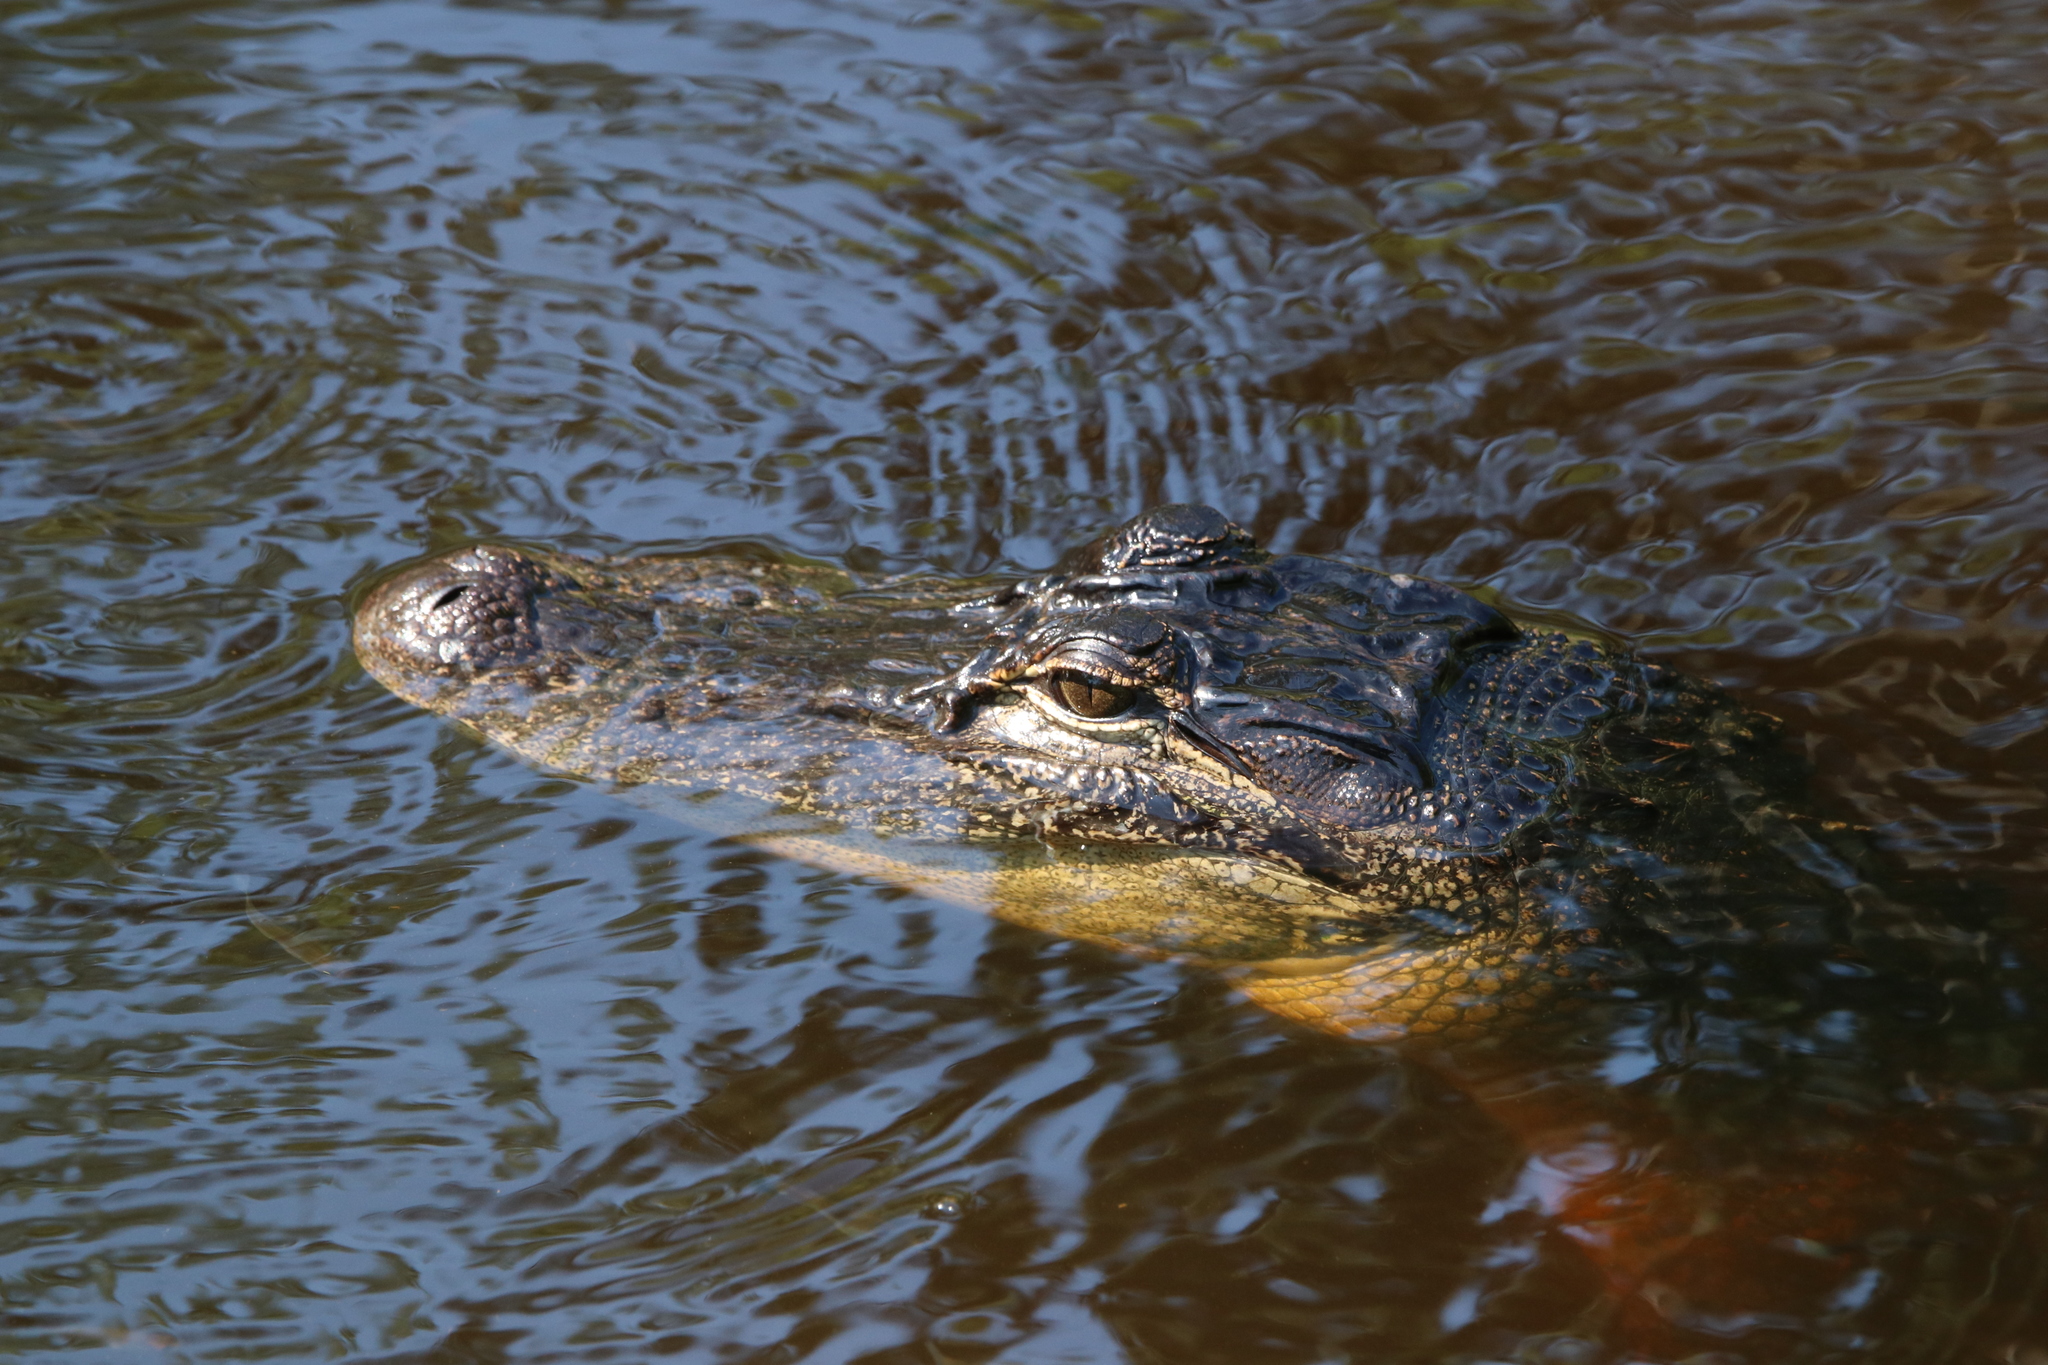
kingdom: Animalia
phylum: Chordata
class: Crocodylia
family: Alligatoridae
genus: Alligator
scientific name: Alligator mississippiensis
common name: American alligator
